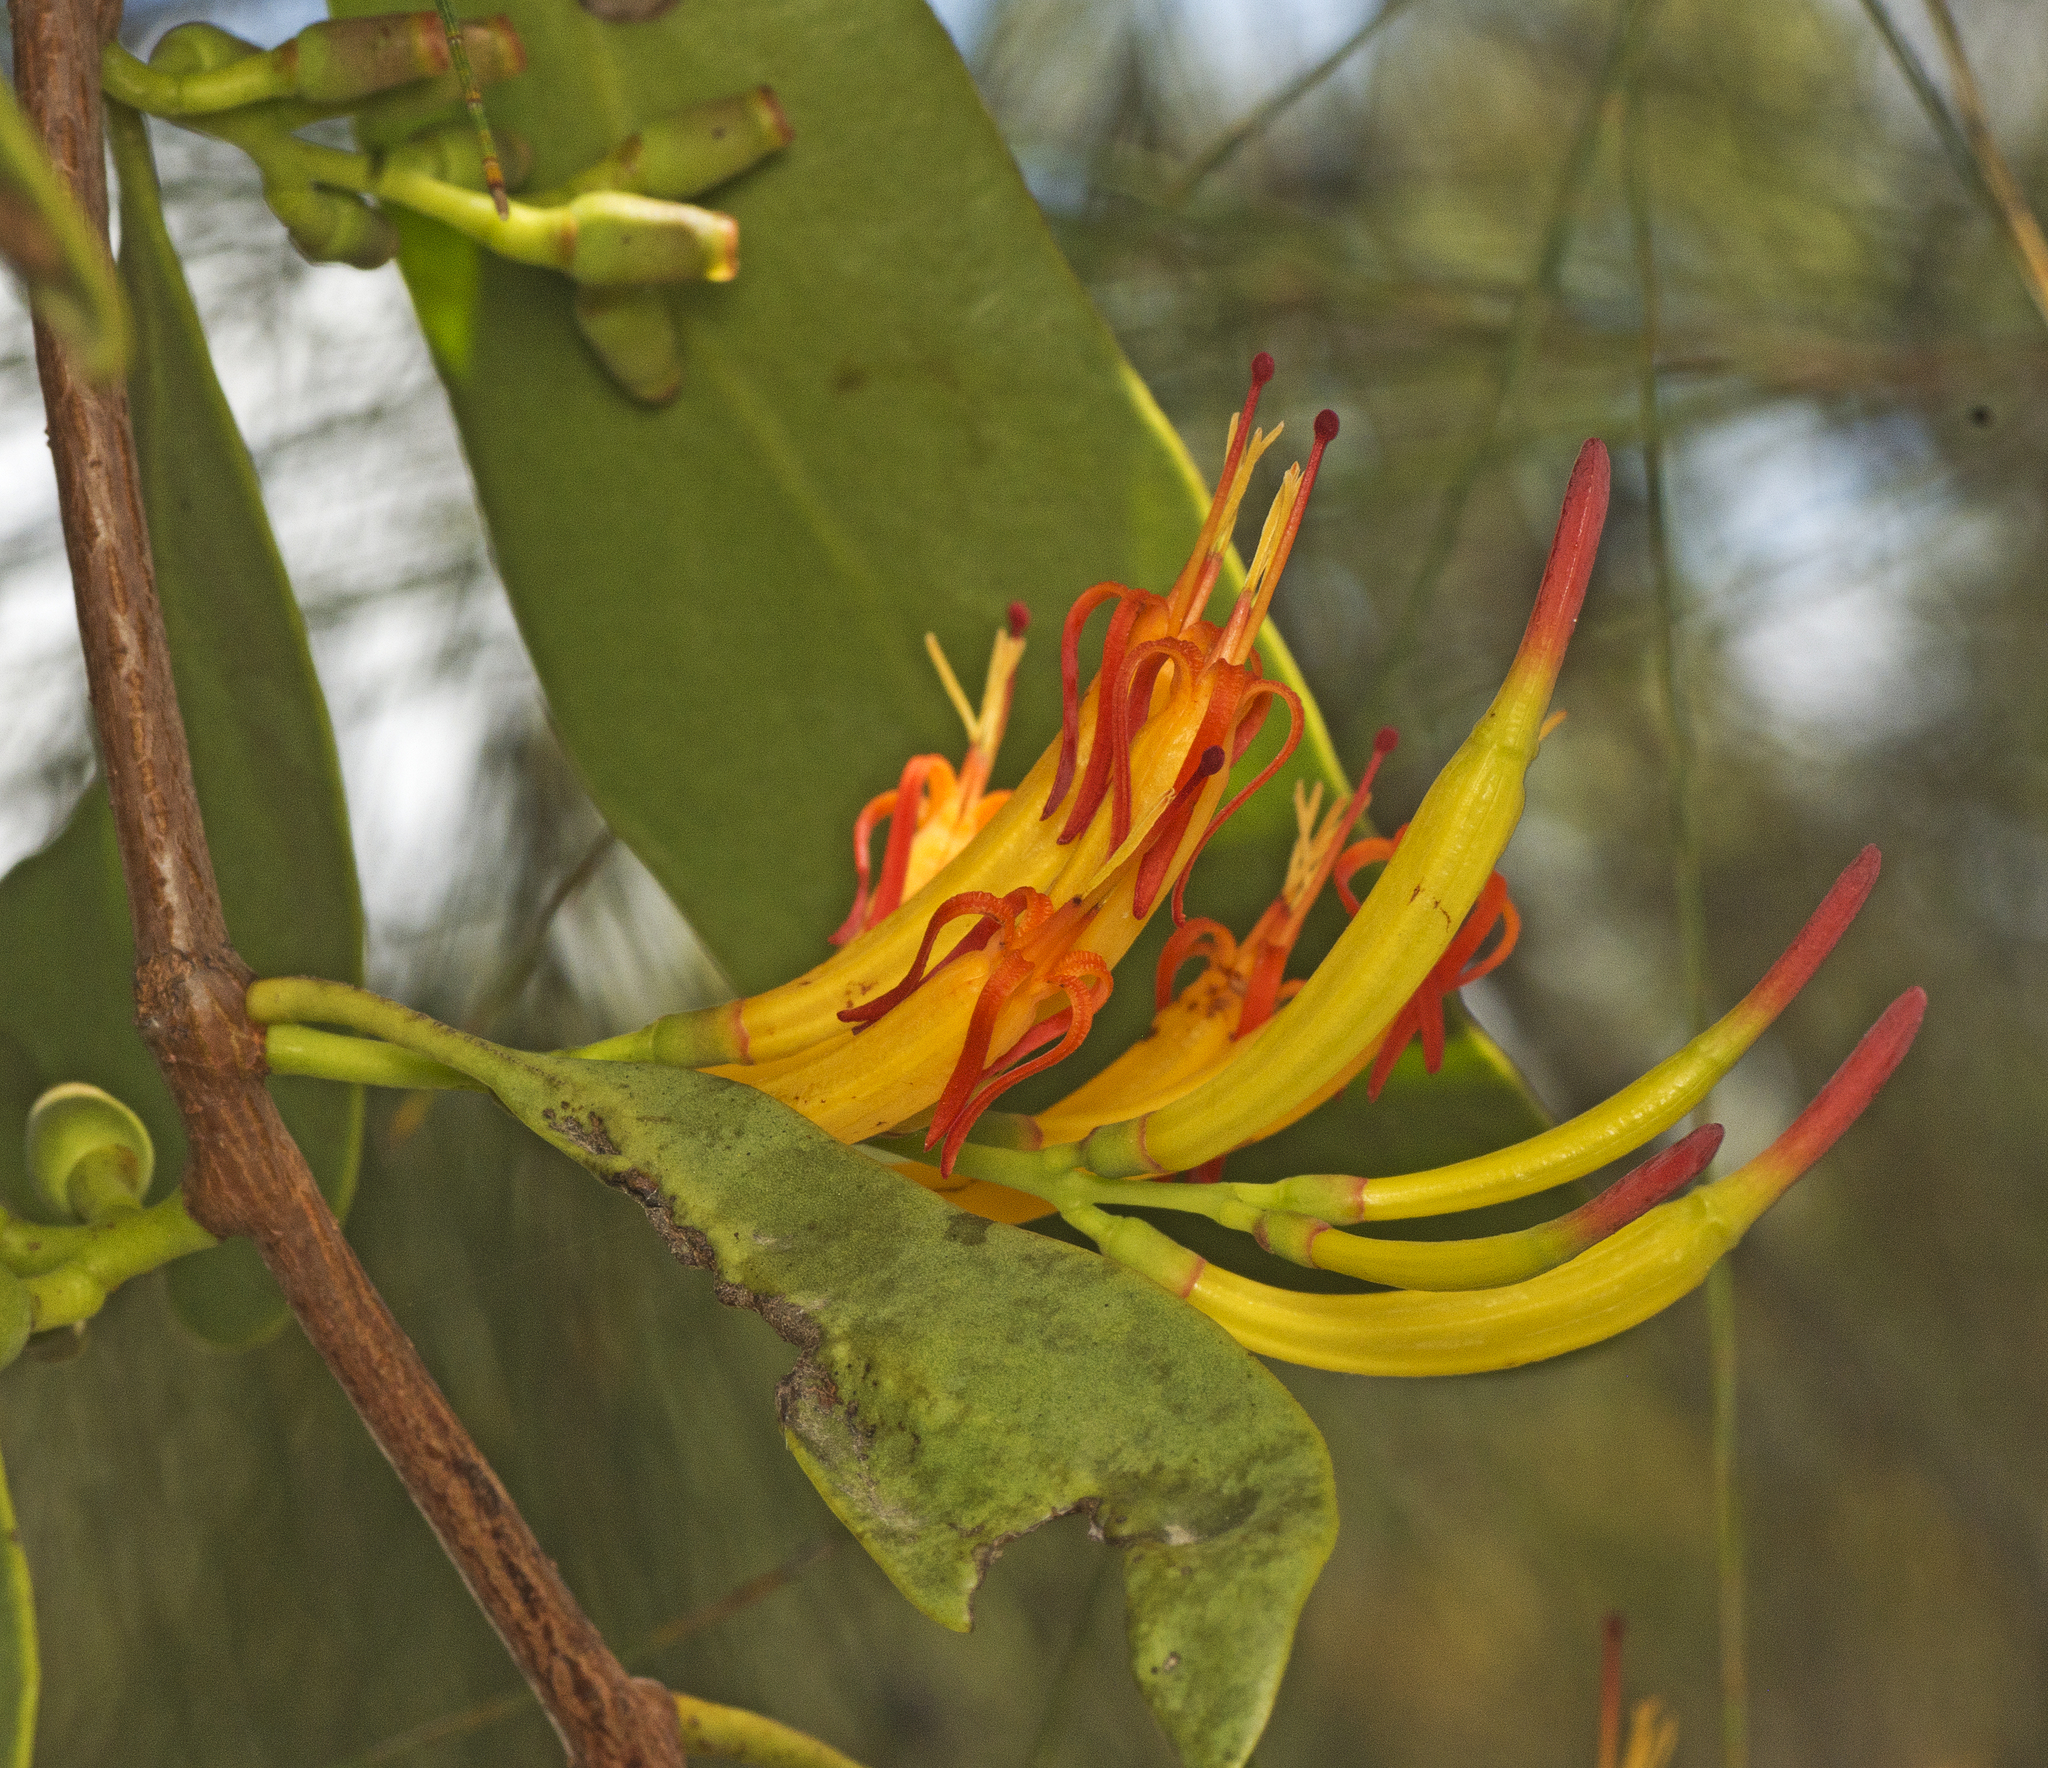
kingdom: Plantae
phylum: Tracheophyta
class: Magnoliopsida
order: Santalales
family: Loranthaceae
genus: Dendrophthoe
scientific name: Dendrophthoe glabrescens
